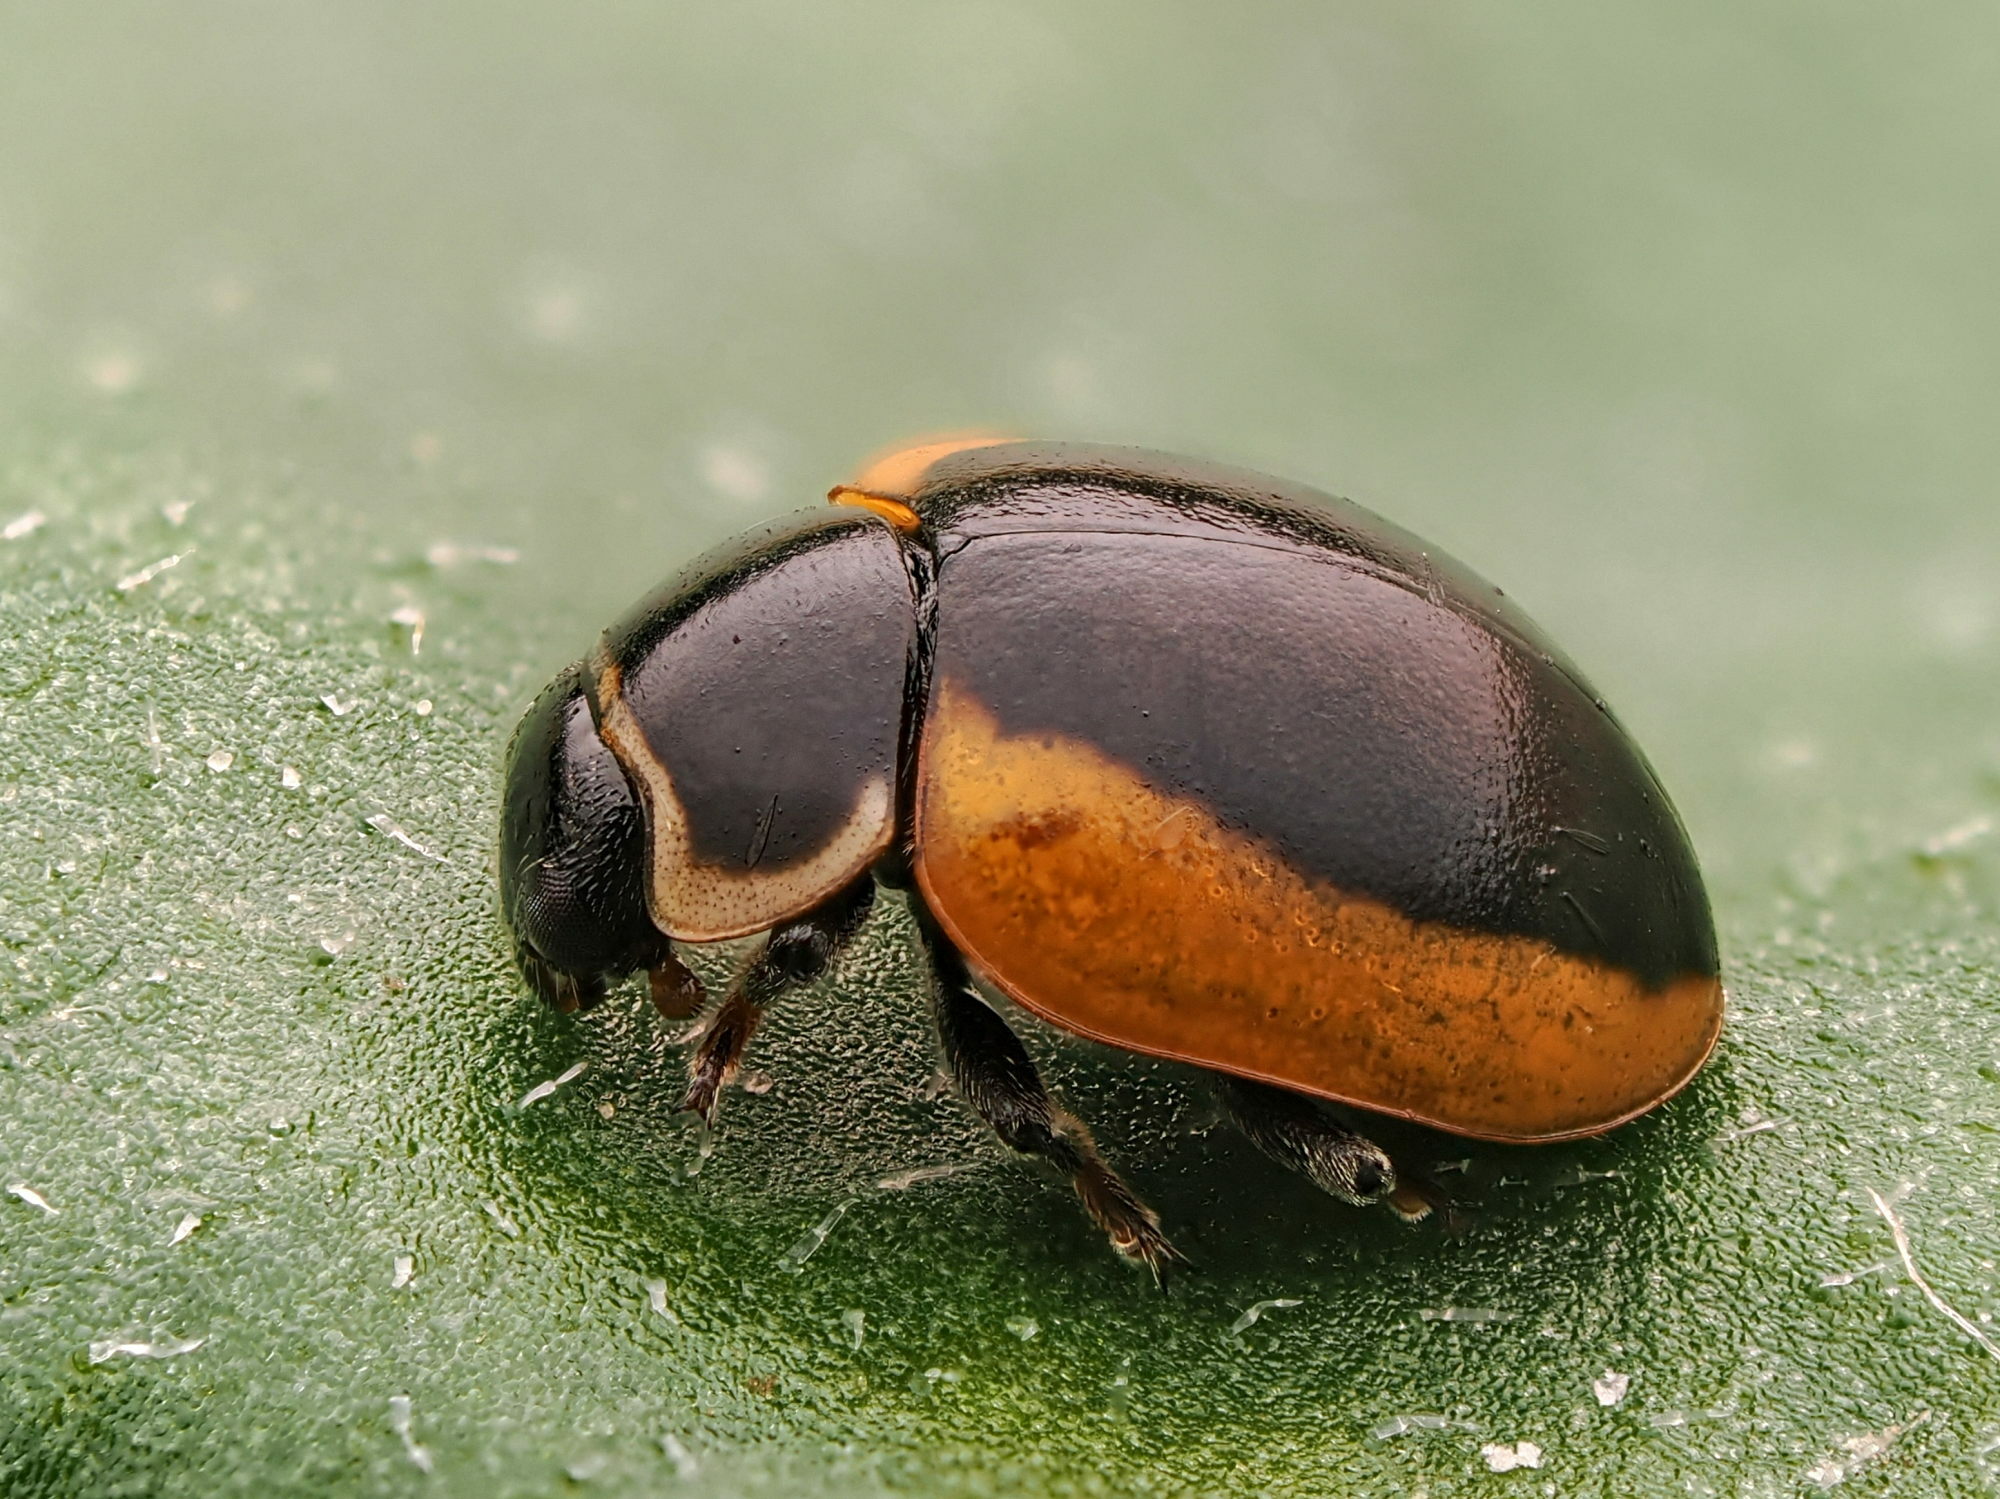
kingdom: Animalia
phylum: Arthropoda
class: Insecta
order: Coleoptera
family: Coccinellidae
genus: Ceratomegilla
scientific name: Ceratomegilla Semiadalia rufocincta
